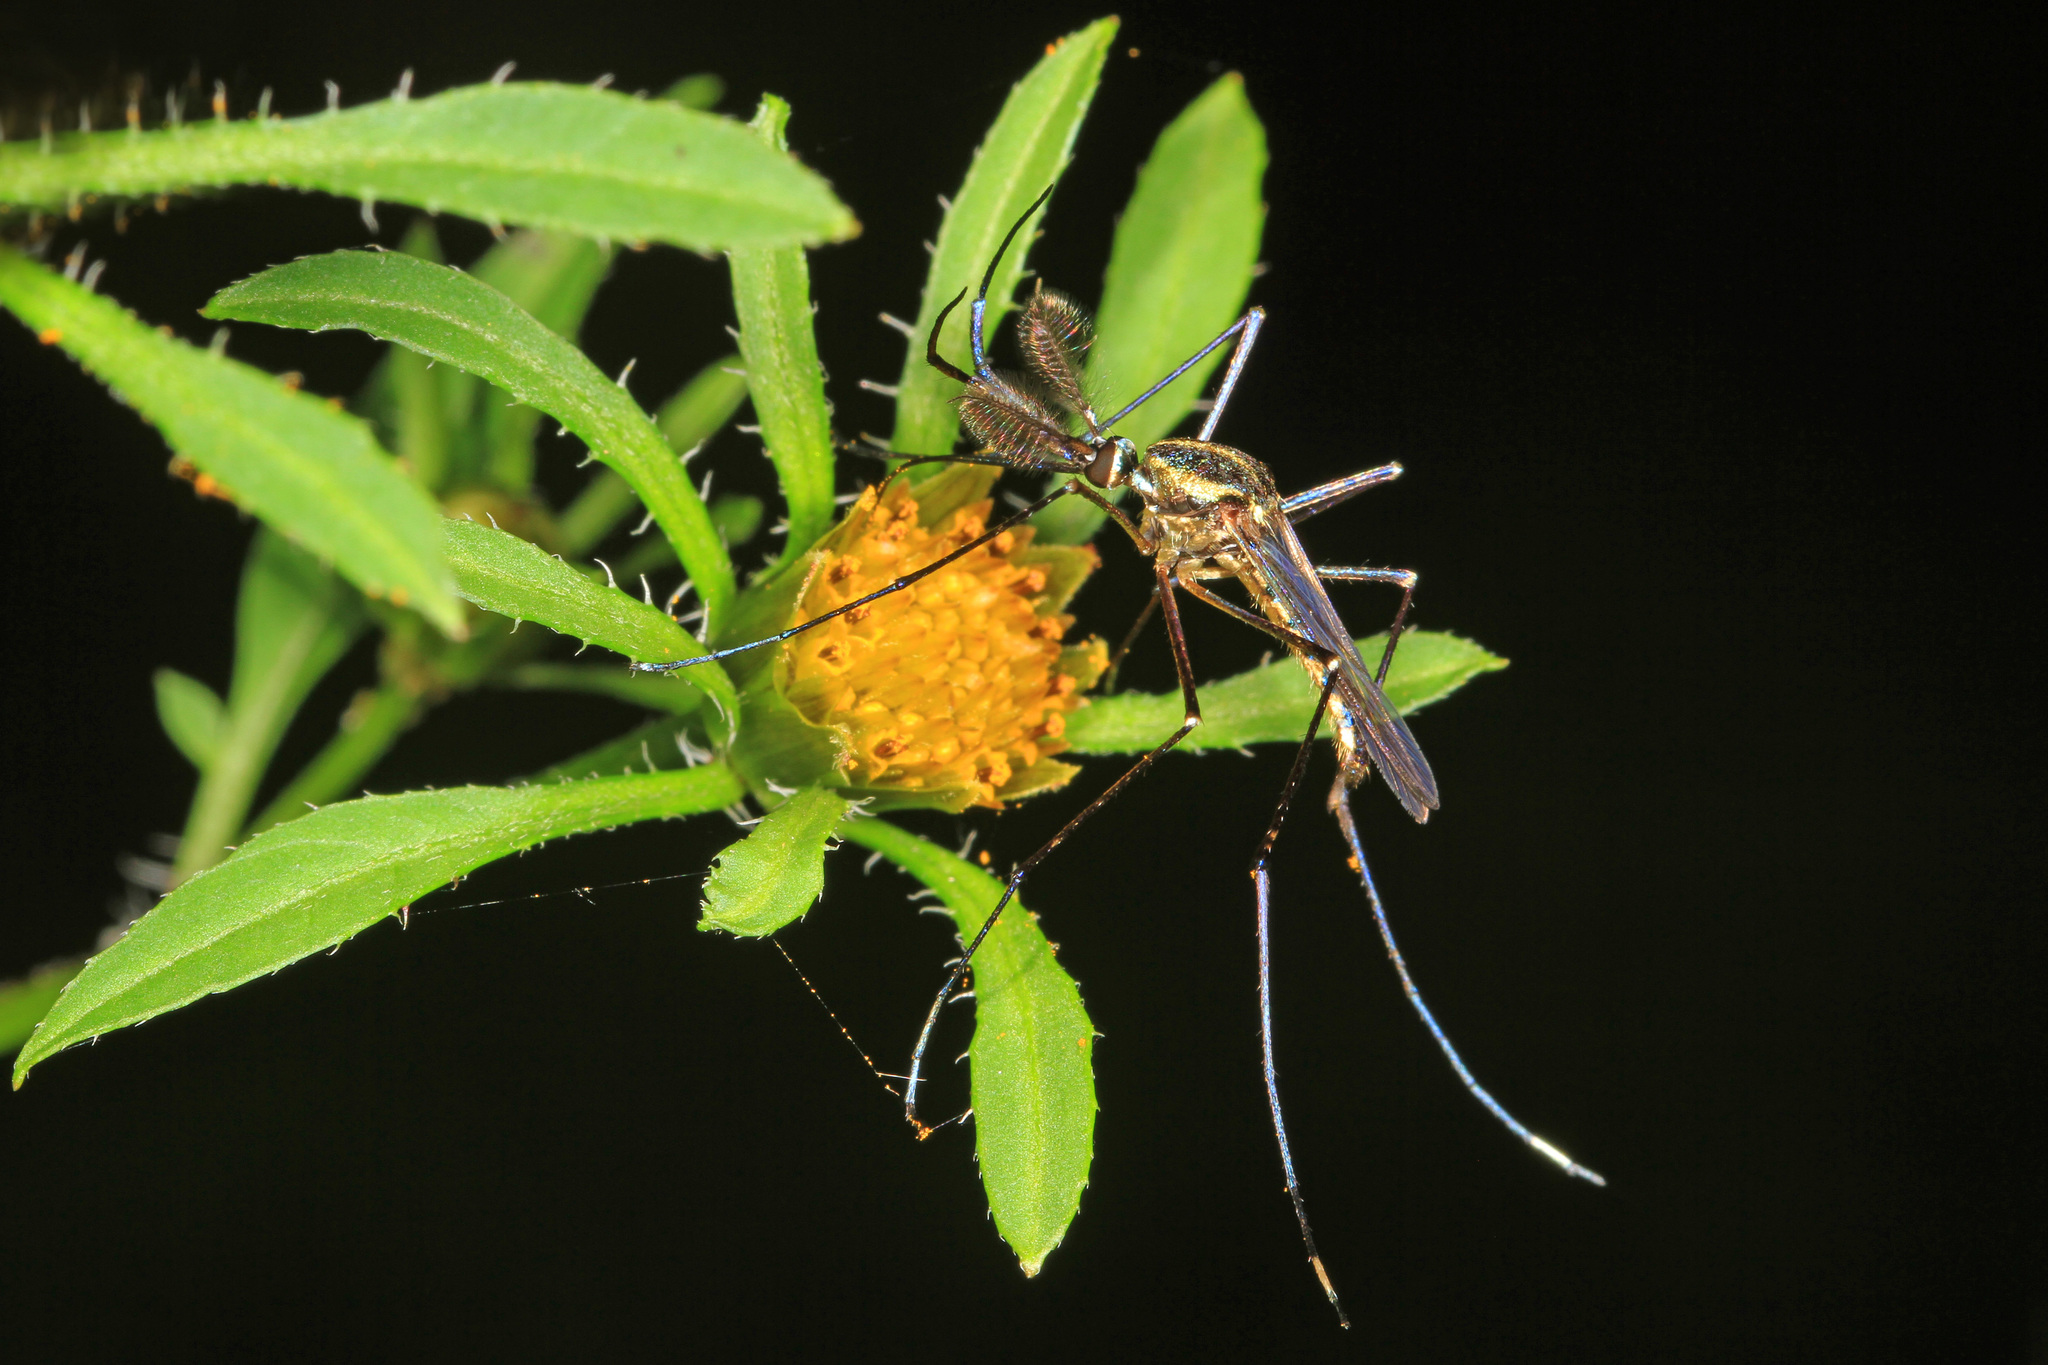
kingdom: Animalia
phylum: Arthropoda
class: Insecta
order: Diptera
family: Culicidae
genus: Toxorhynchites
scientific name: Toxorhynchites rutilus
